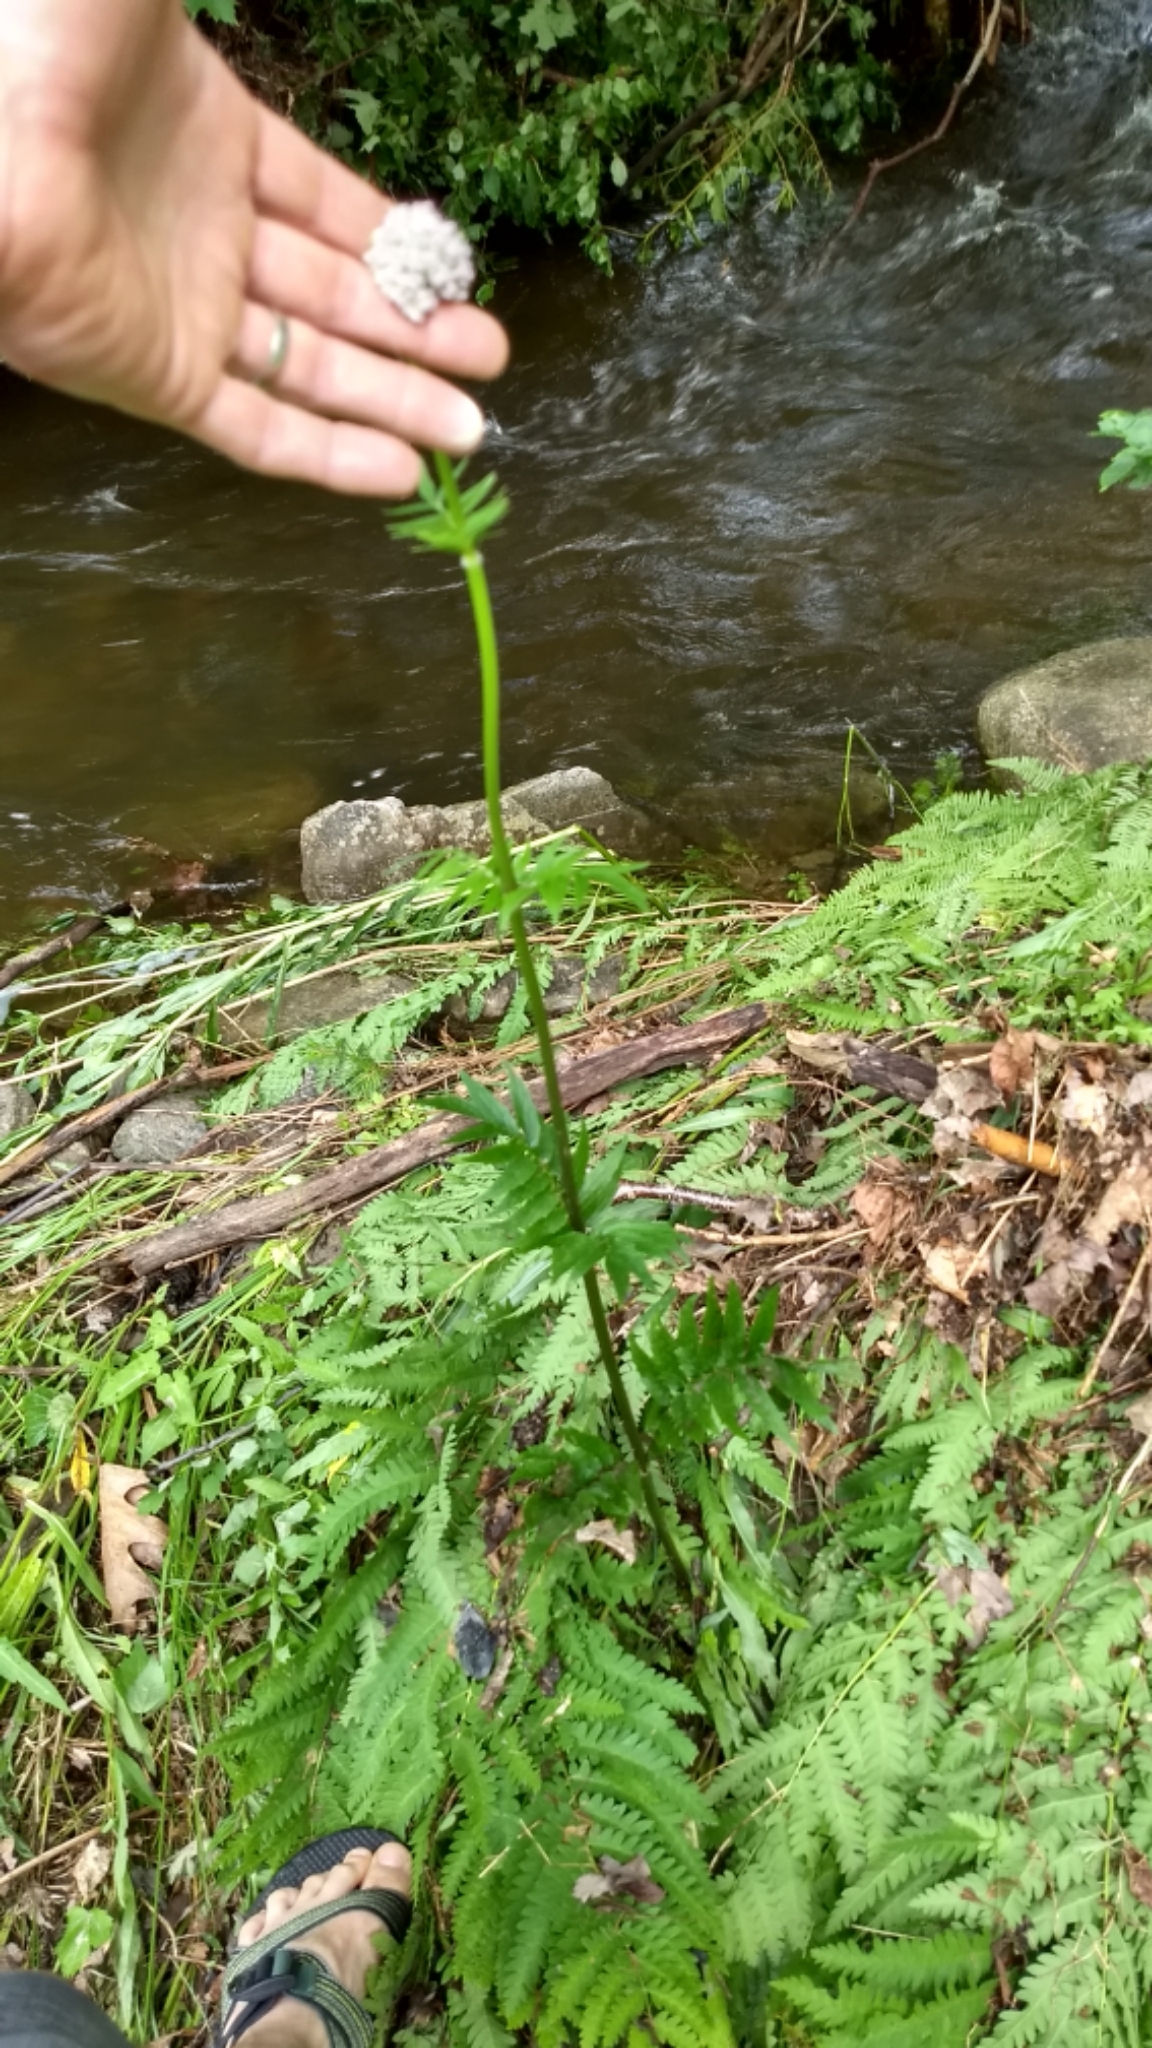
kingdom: Plantae
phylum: Tracheophyta
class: Magnoliopsida
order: Dipsacales
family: Caprifoliaceae
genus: Valeriana
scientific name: Valeriana officinalis
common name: Common valerian
